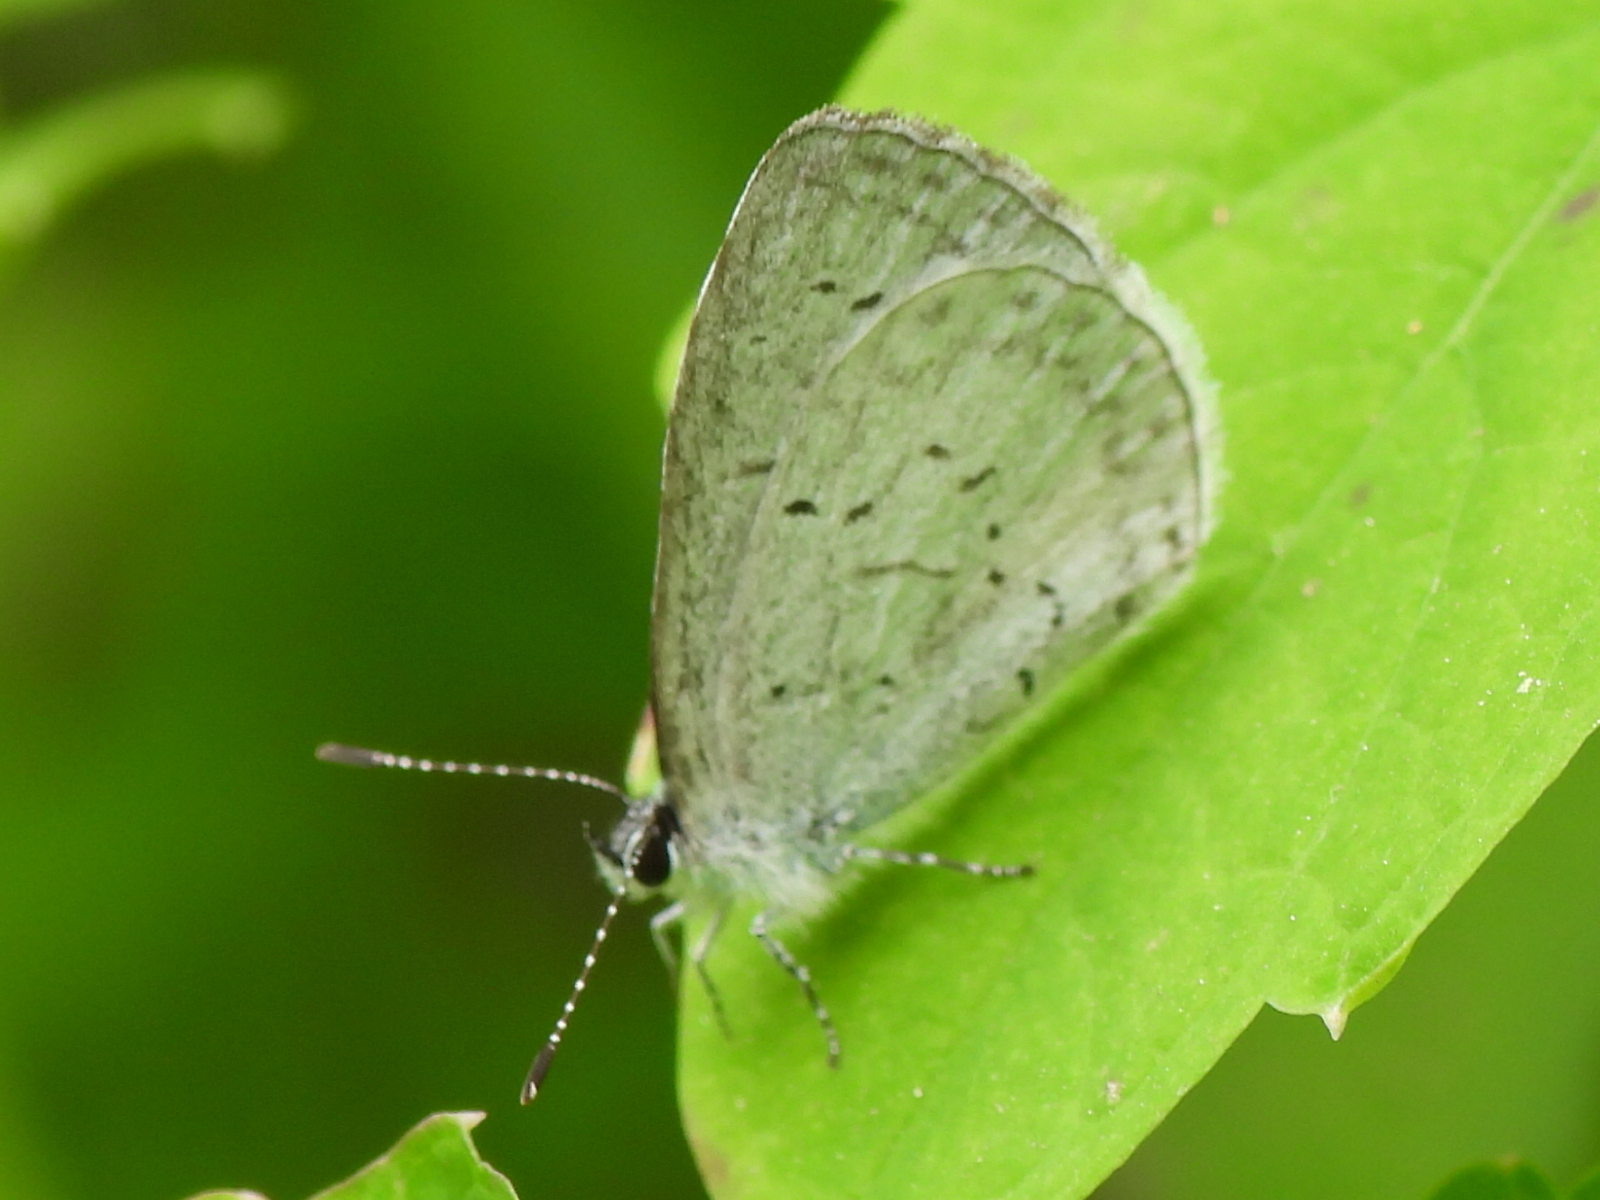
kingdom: Animalia
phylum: Arthropoda
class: Insecta
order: Lepidoptera
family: Lycaenidae
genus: Cyaniris
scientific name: Cyaniris neglecta
